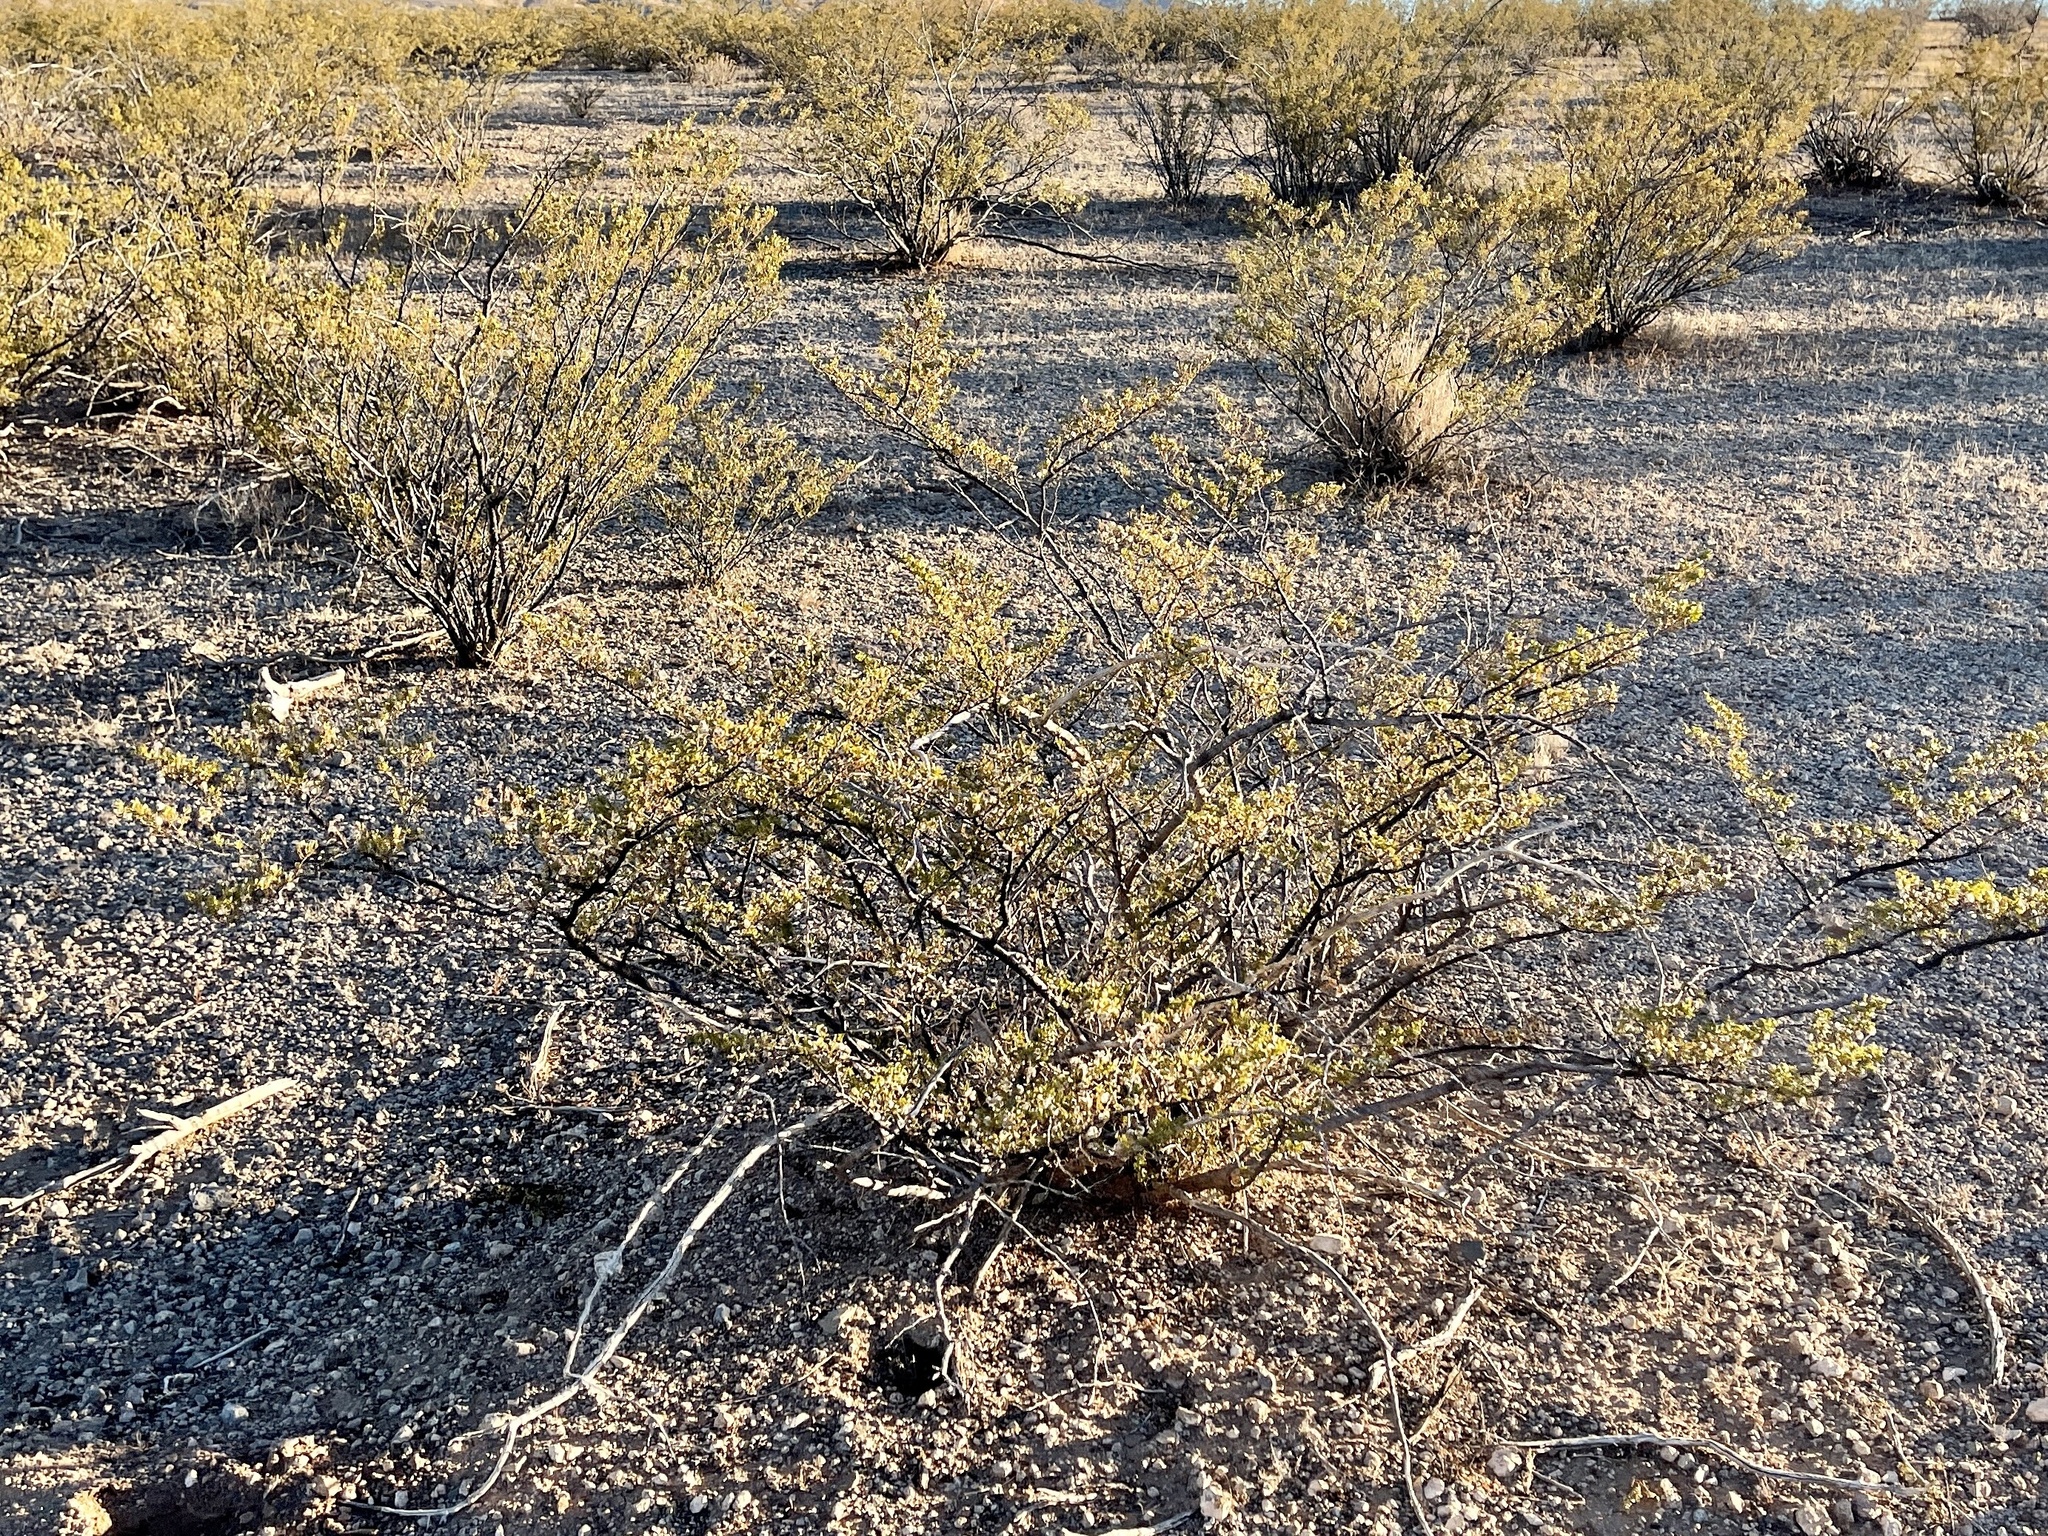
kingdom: Plantae
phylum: Tracheophyta
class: Magnoliopsida
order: Zygophyllales
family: Zygophyllaceae
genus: Larrea
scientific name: Larrea tridentata
